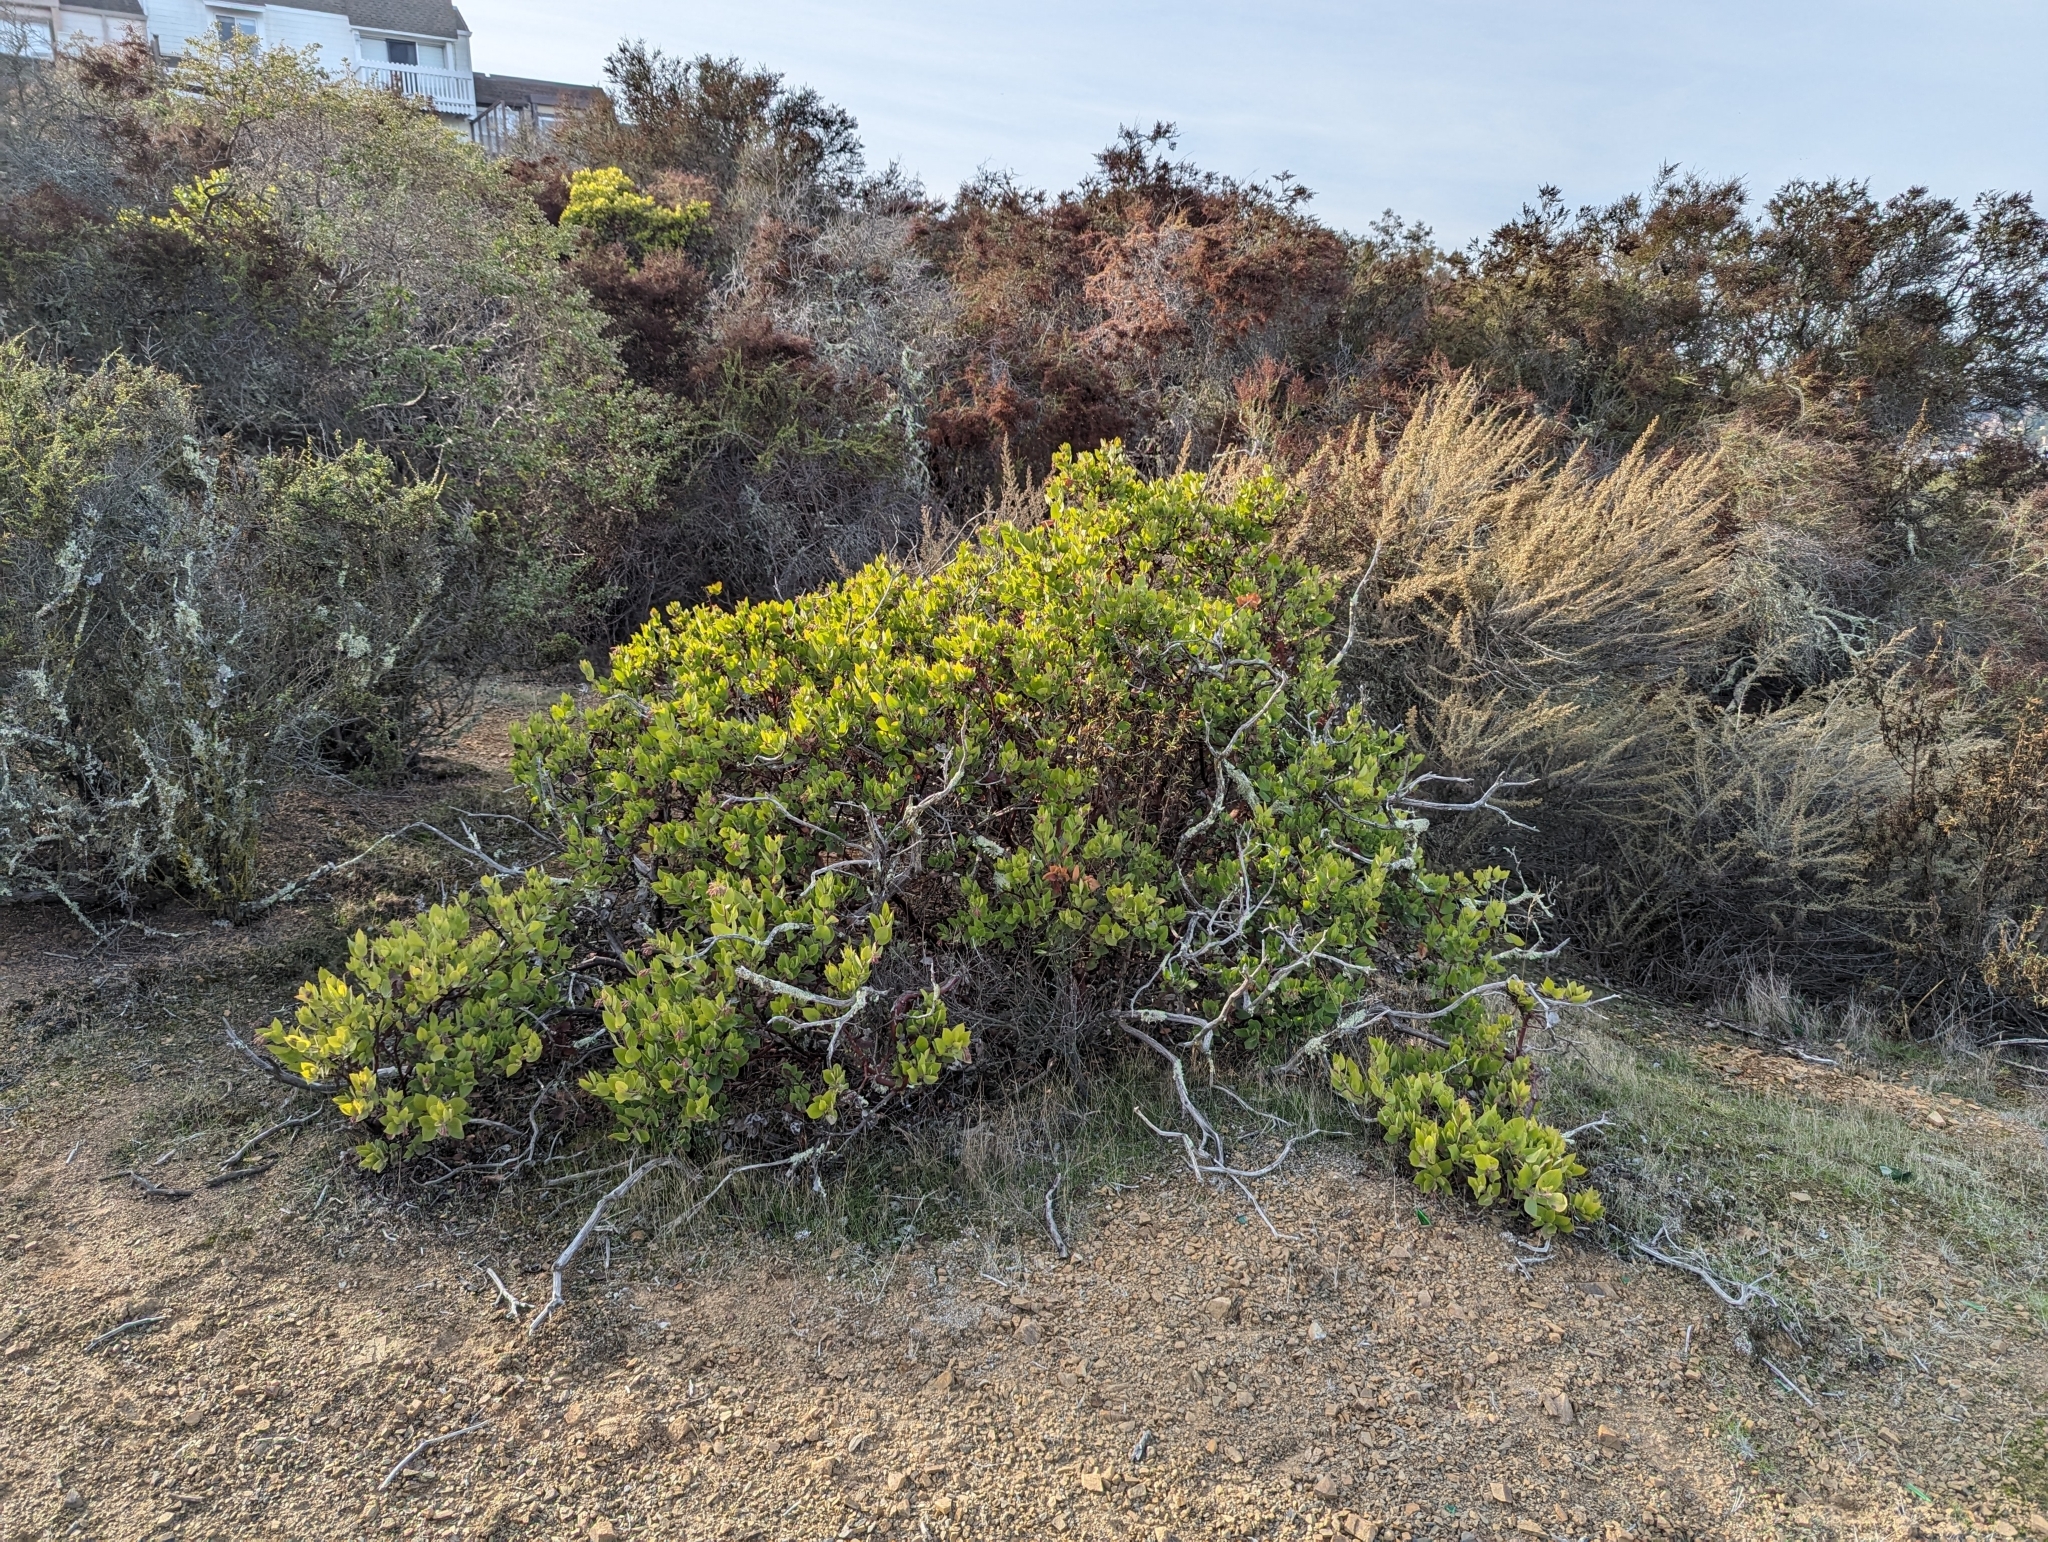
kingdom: Plantae
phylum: Tracheophyta
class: Magnoliopsida
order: Ericales
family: Ericaceae
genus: Arctostaphylos
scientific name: Arctostaphylos crustacea
